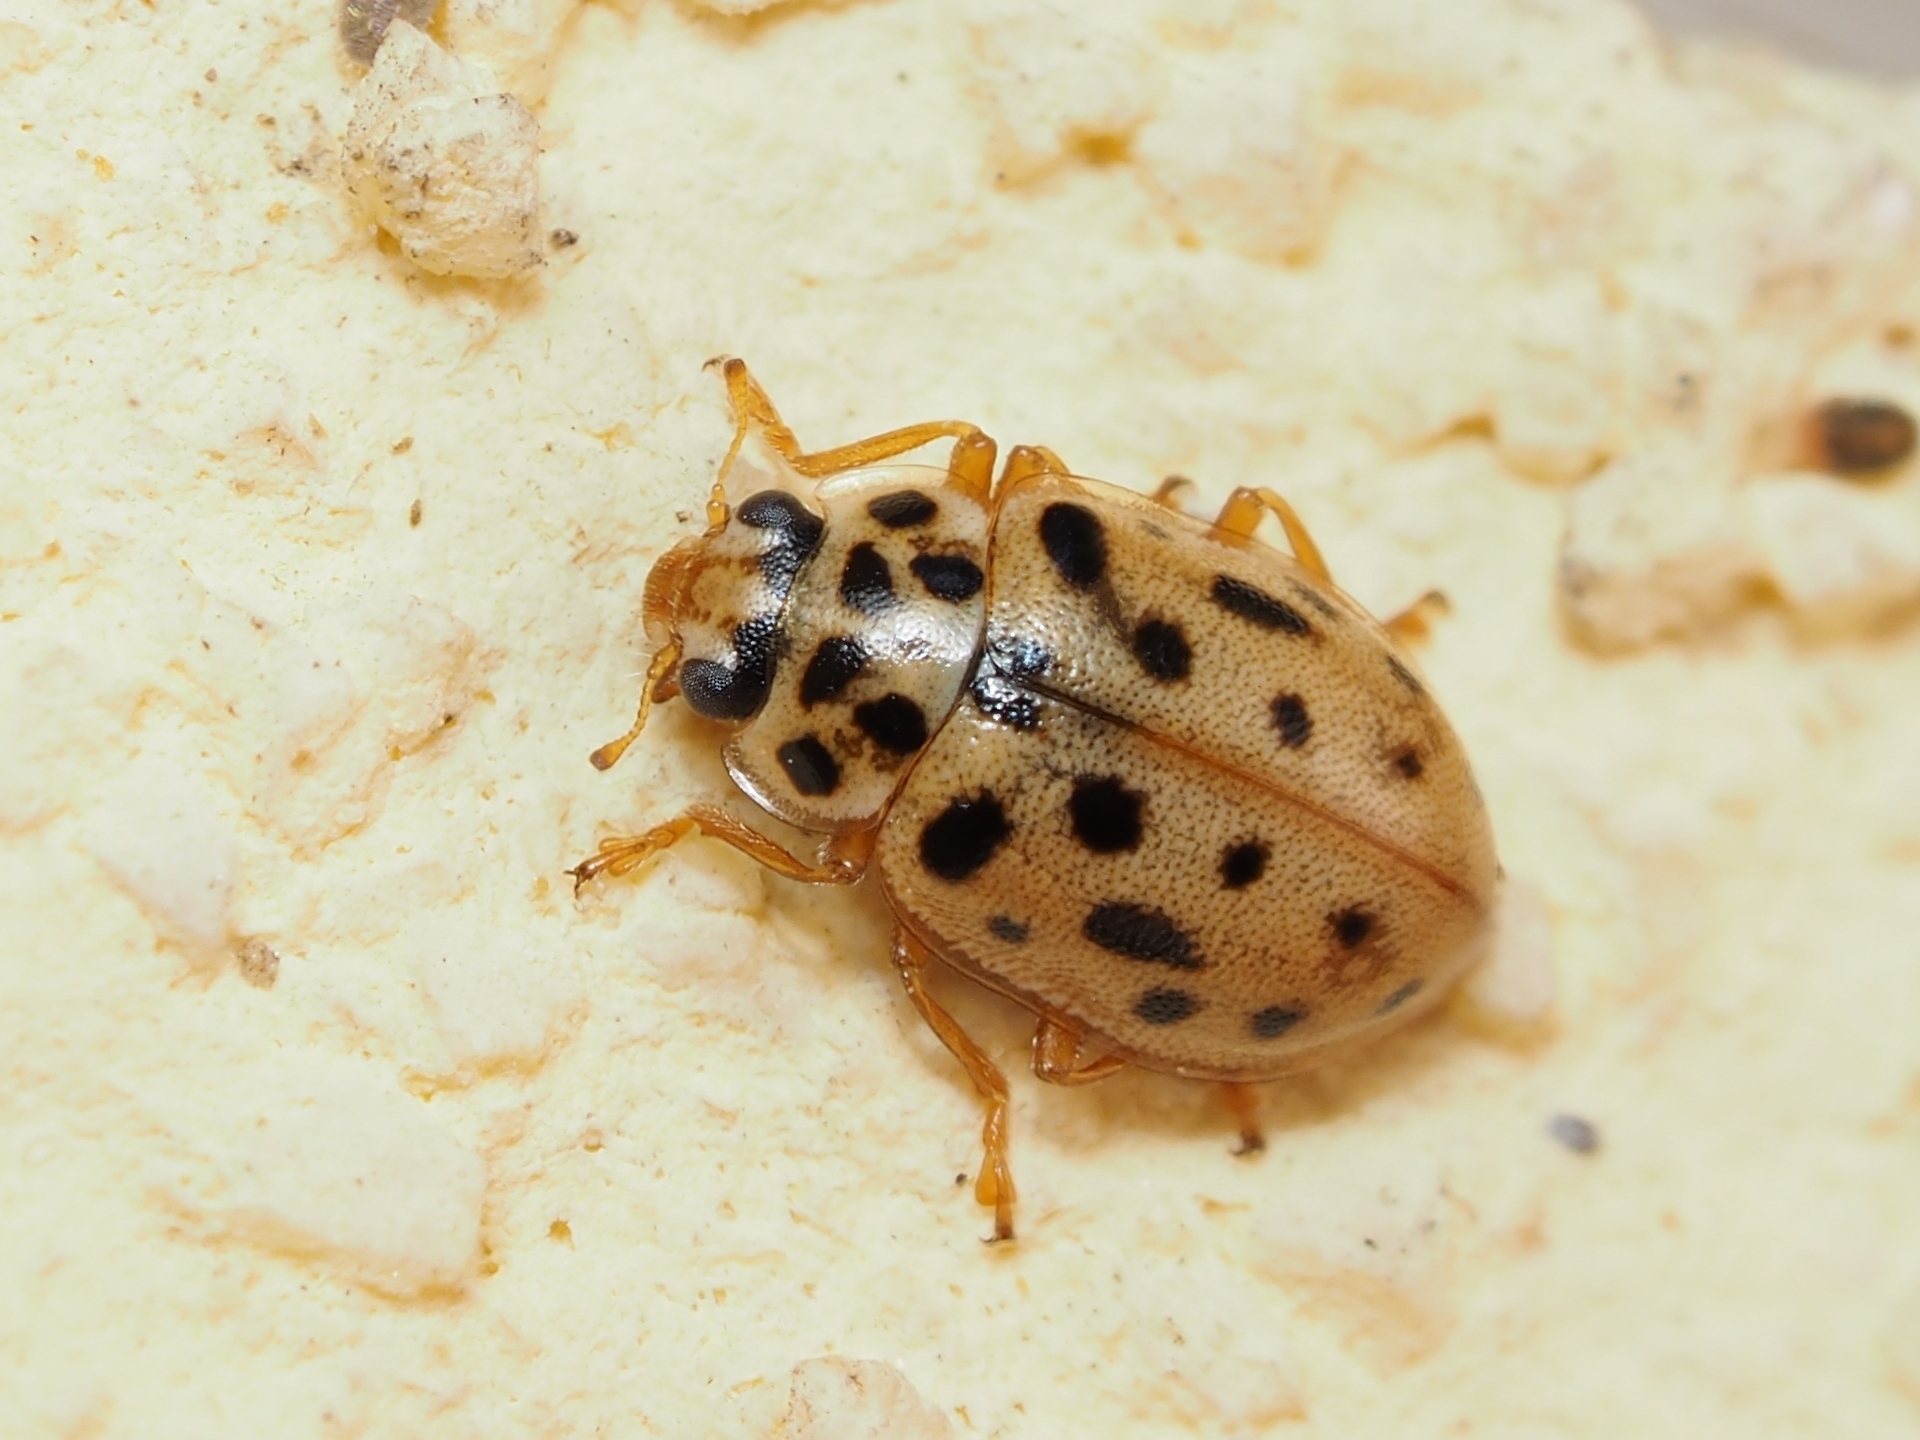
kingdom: Animalia
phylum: Arthropoda
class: Insecta
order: Coleoptera
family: Coccinellidae
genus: Anisosticta
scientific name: Anisosticta novemdecimpunctata
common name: Water ladybird
